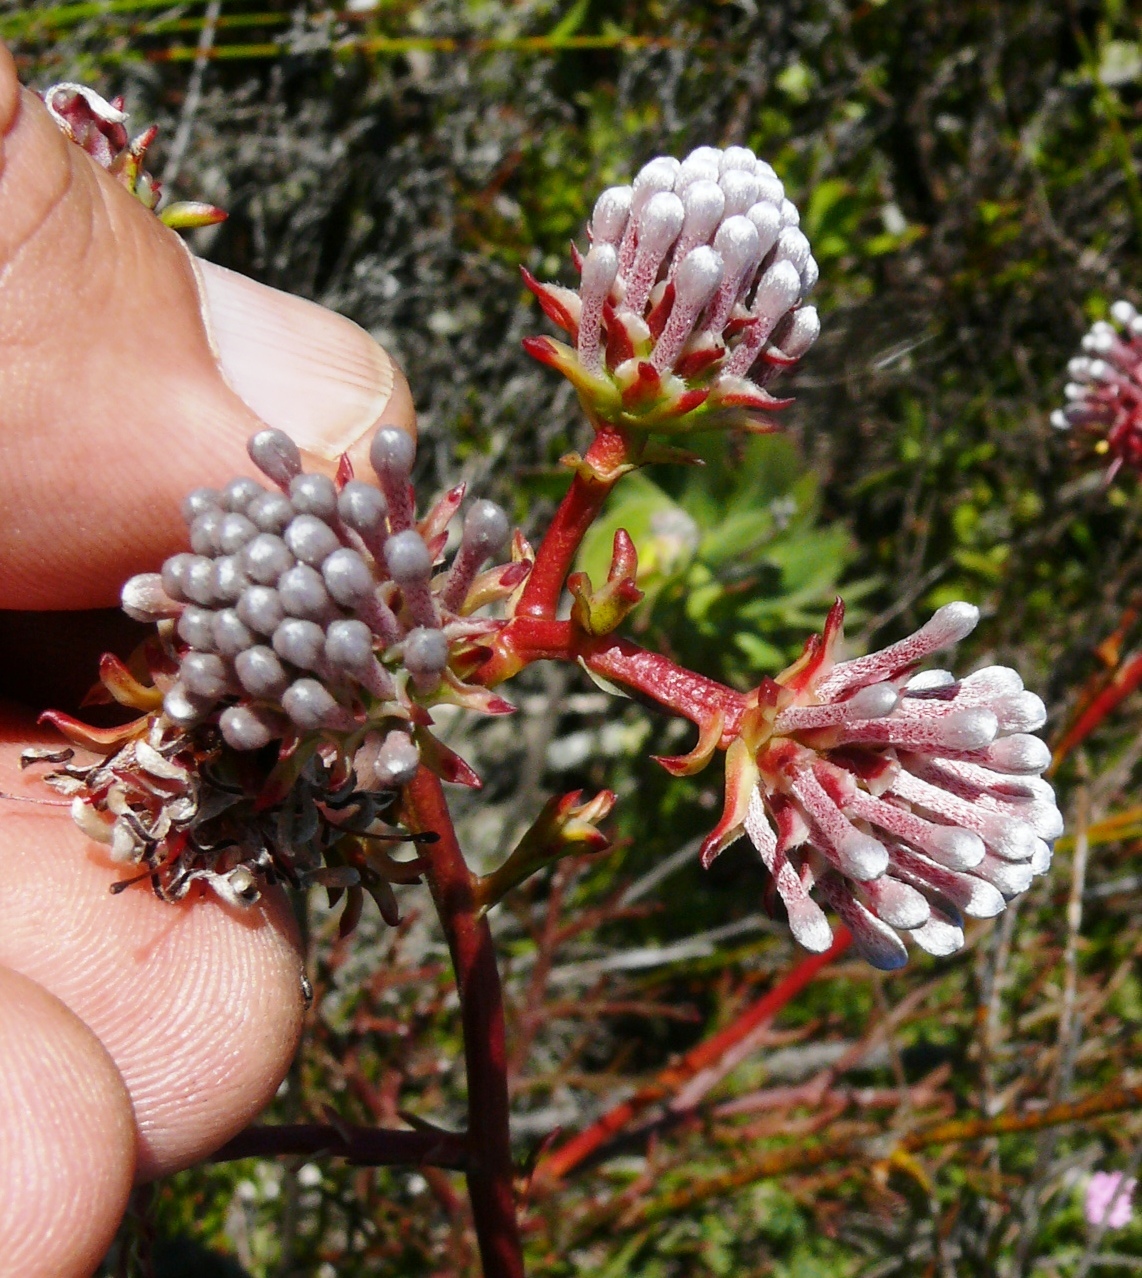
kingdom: Plantae
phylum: Tracheophyta
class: Magnoliopsida
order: Proteales
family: Proteaceae
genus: Serruria
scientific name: Serruria elongata
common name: Long-stalk spiderhead
